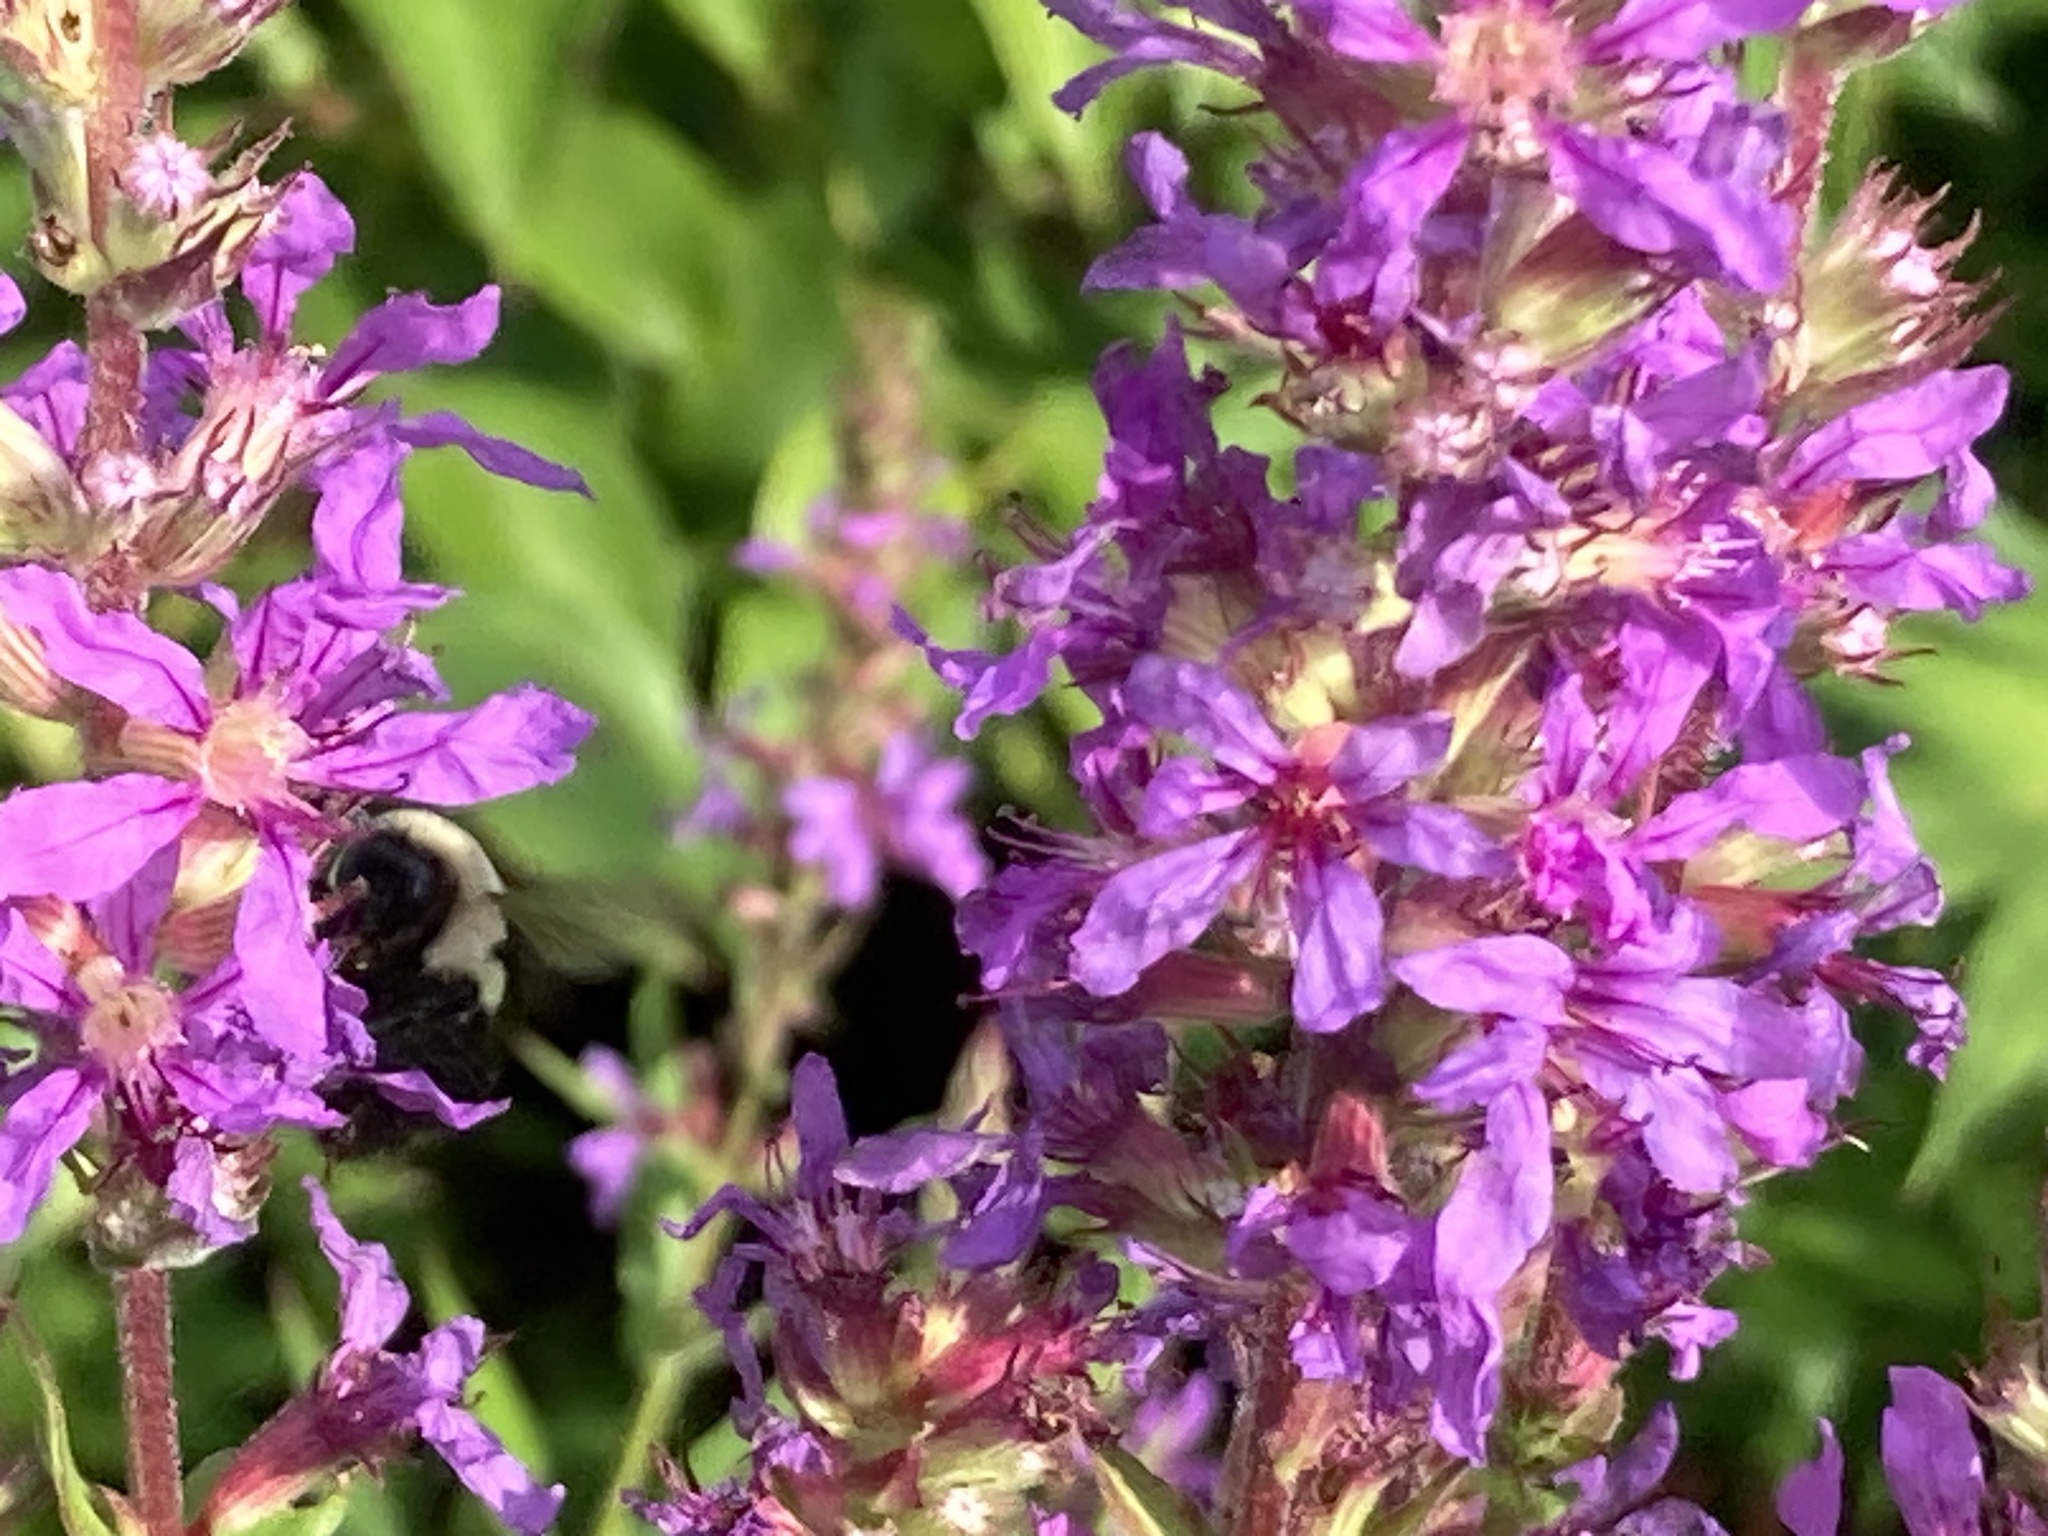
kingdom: Animalia
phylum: Arthropoda
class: Insecta
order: Hymenoptera
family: Apidae
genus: Bombus
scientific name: Bombus impatiens
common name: Common eastern bumble bee
